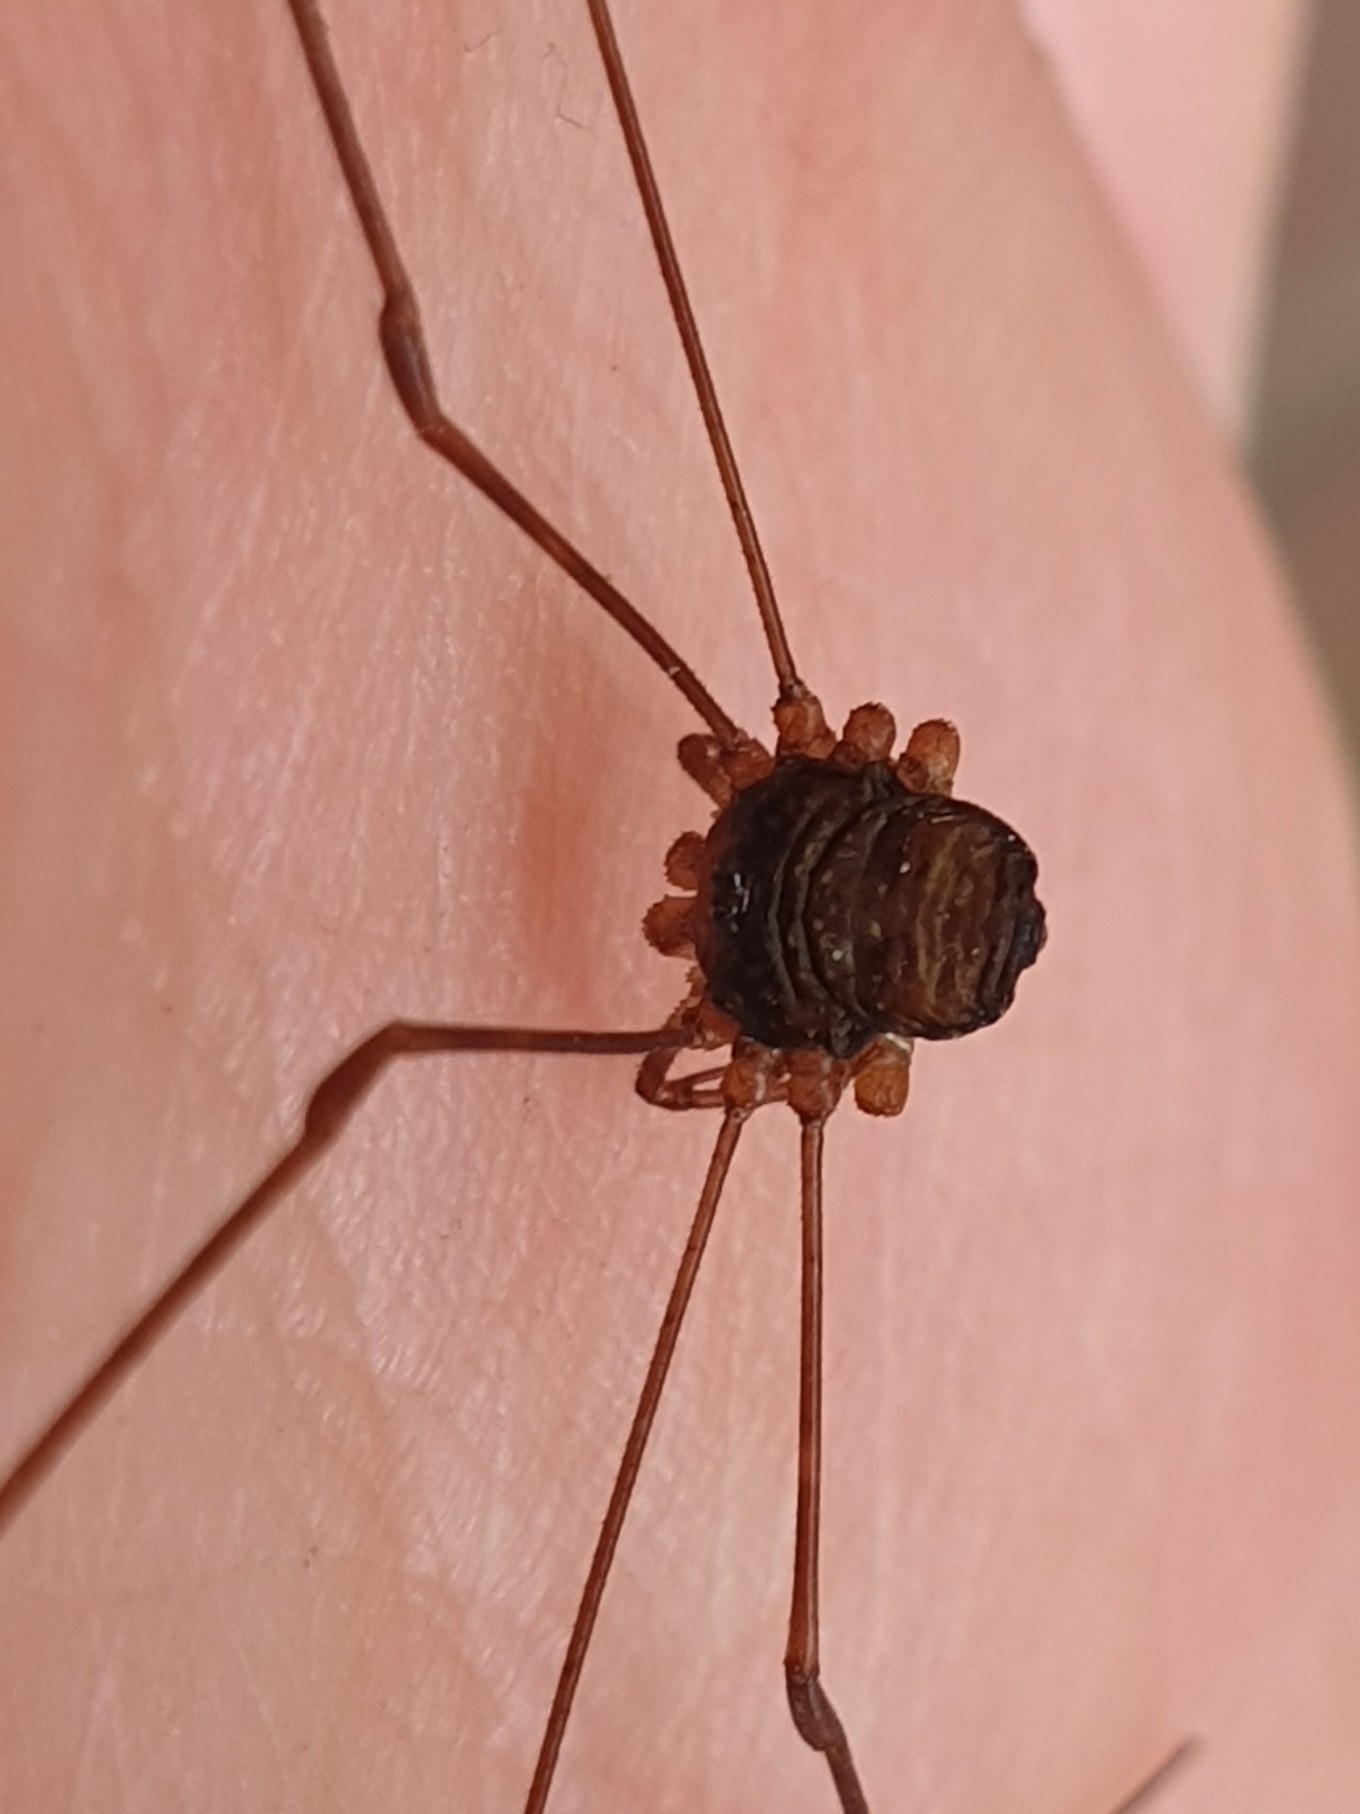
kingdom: Animalia
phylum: Arthropoda
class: Arachnida
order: Opiliones
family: Phalangiidae
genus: Dicranopalpus
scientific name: Dicranopalpus ramosus
